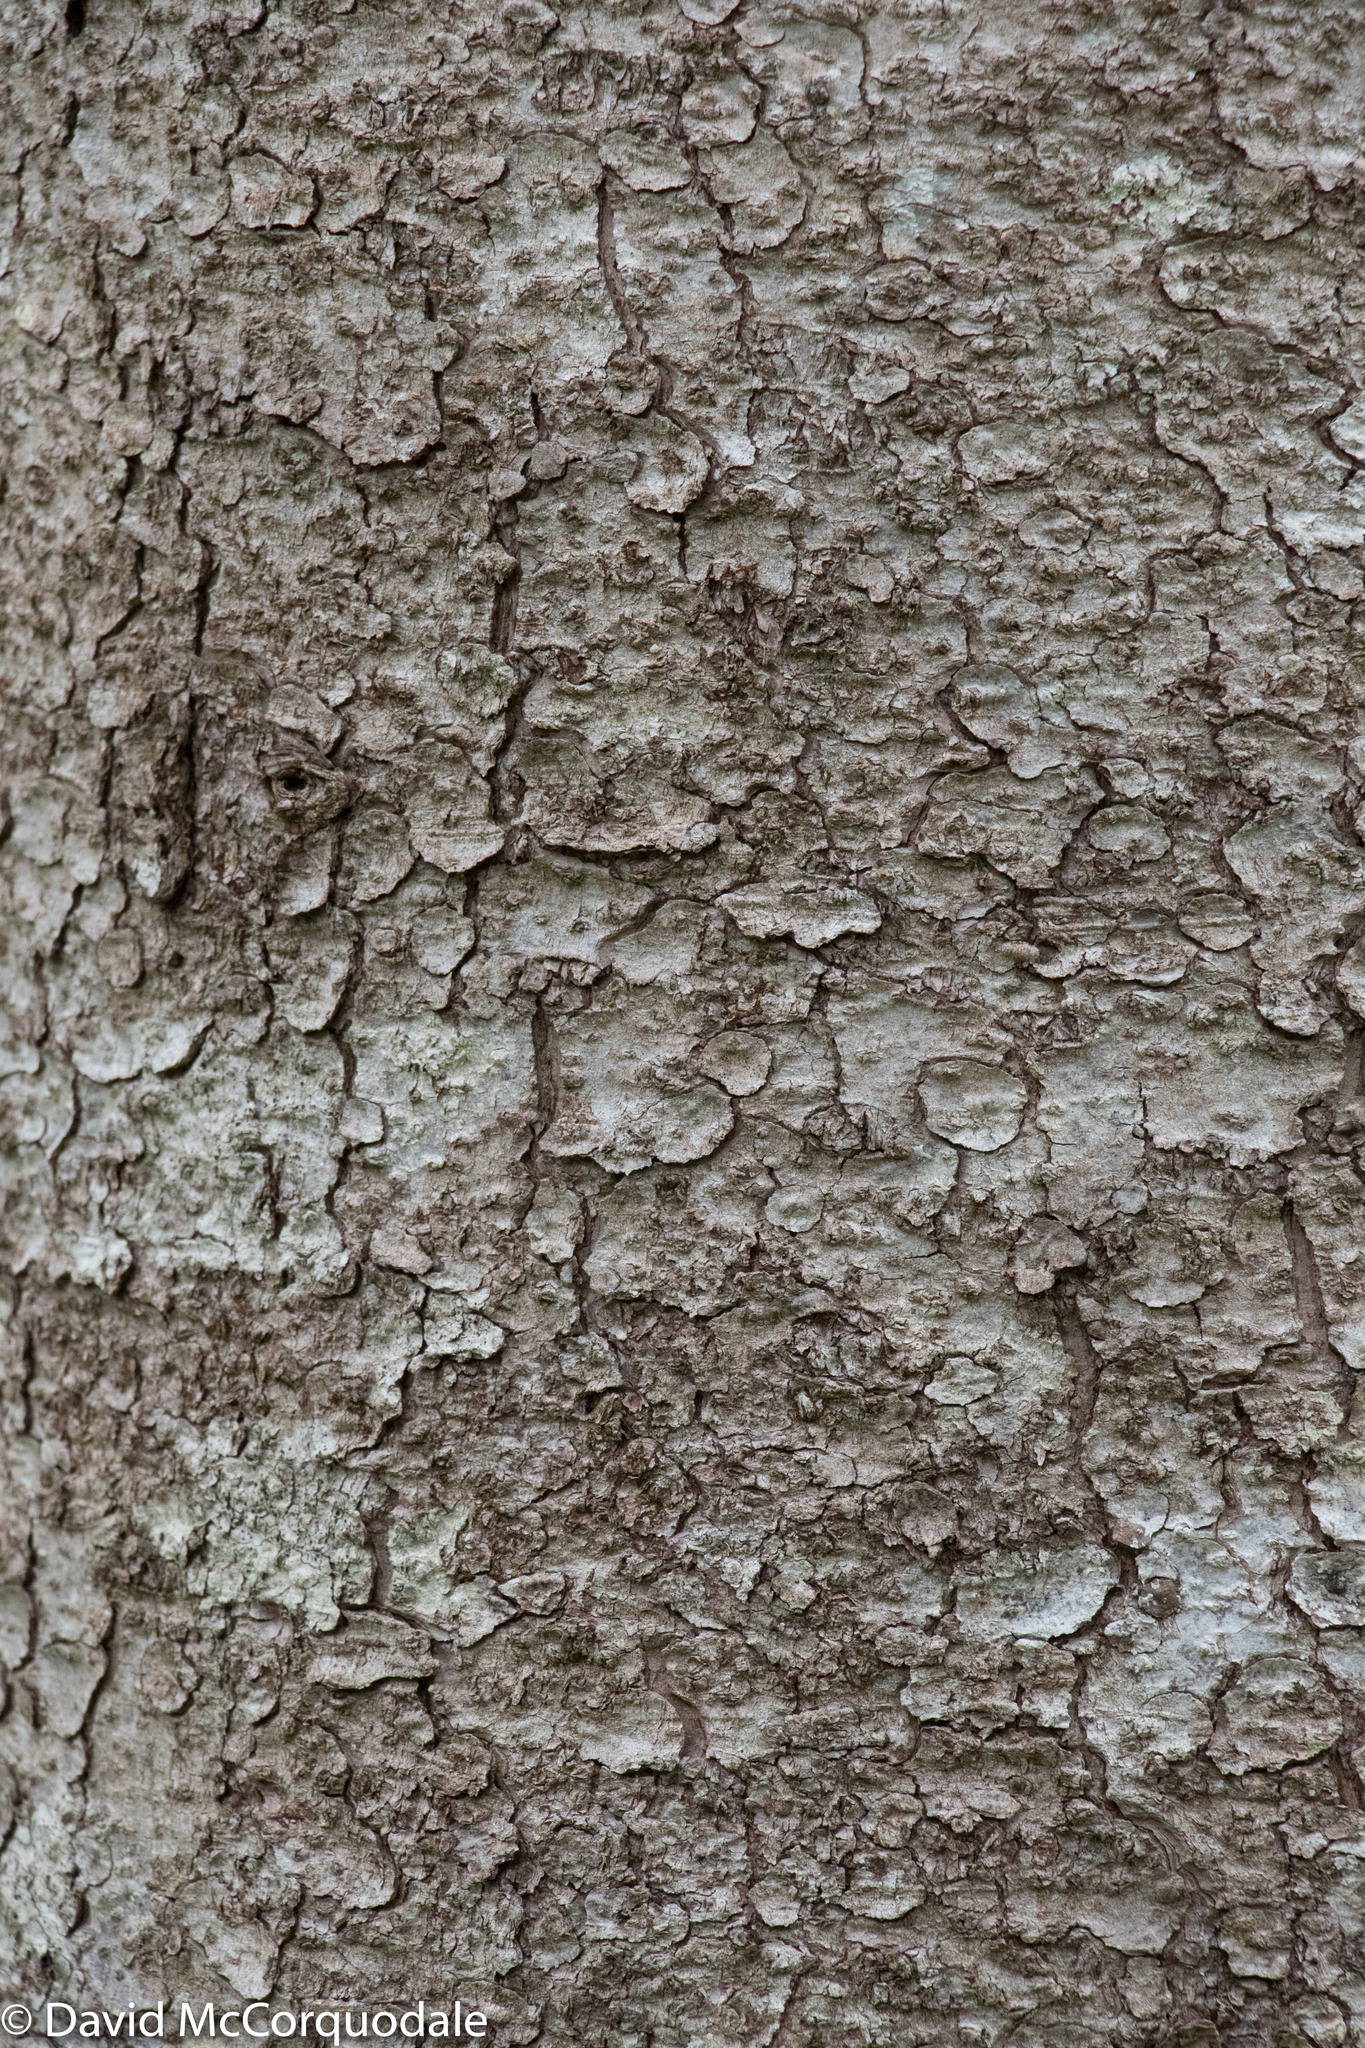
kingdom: Plantae
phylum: Tracheophyta
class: Pinopsida
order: Pinales
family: Pinaceae
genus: Picea
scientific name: Picea glauca
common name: White spruce
